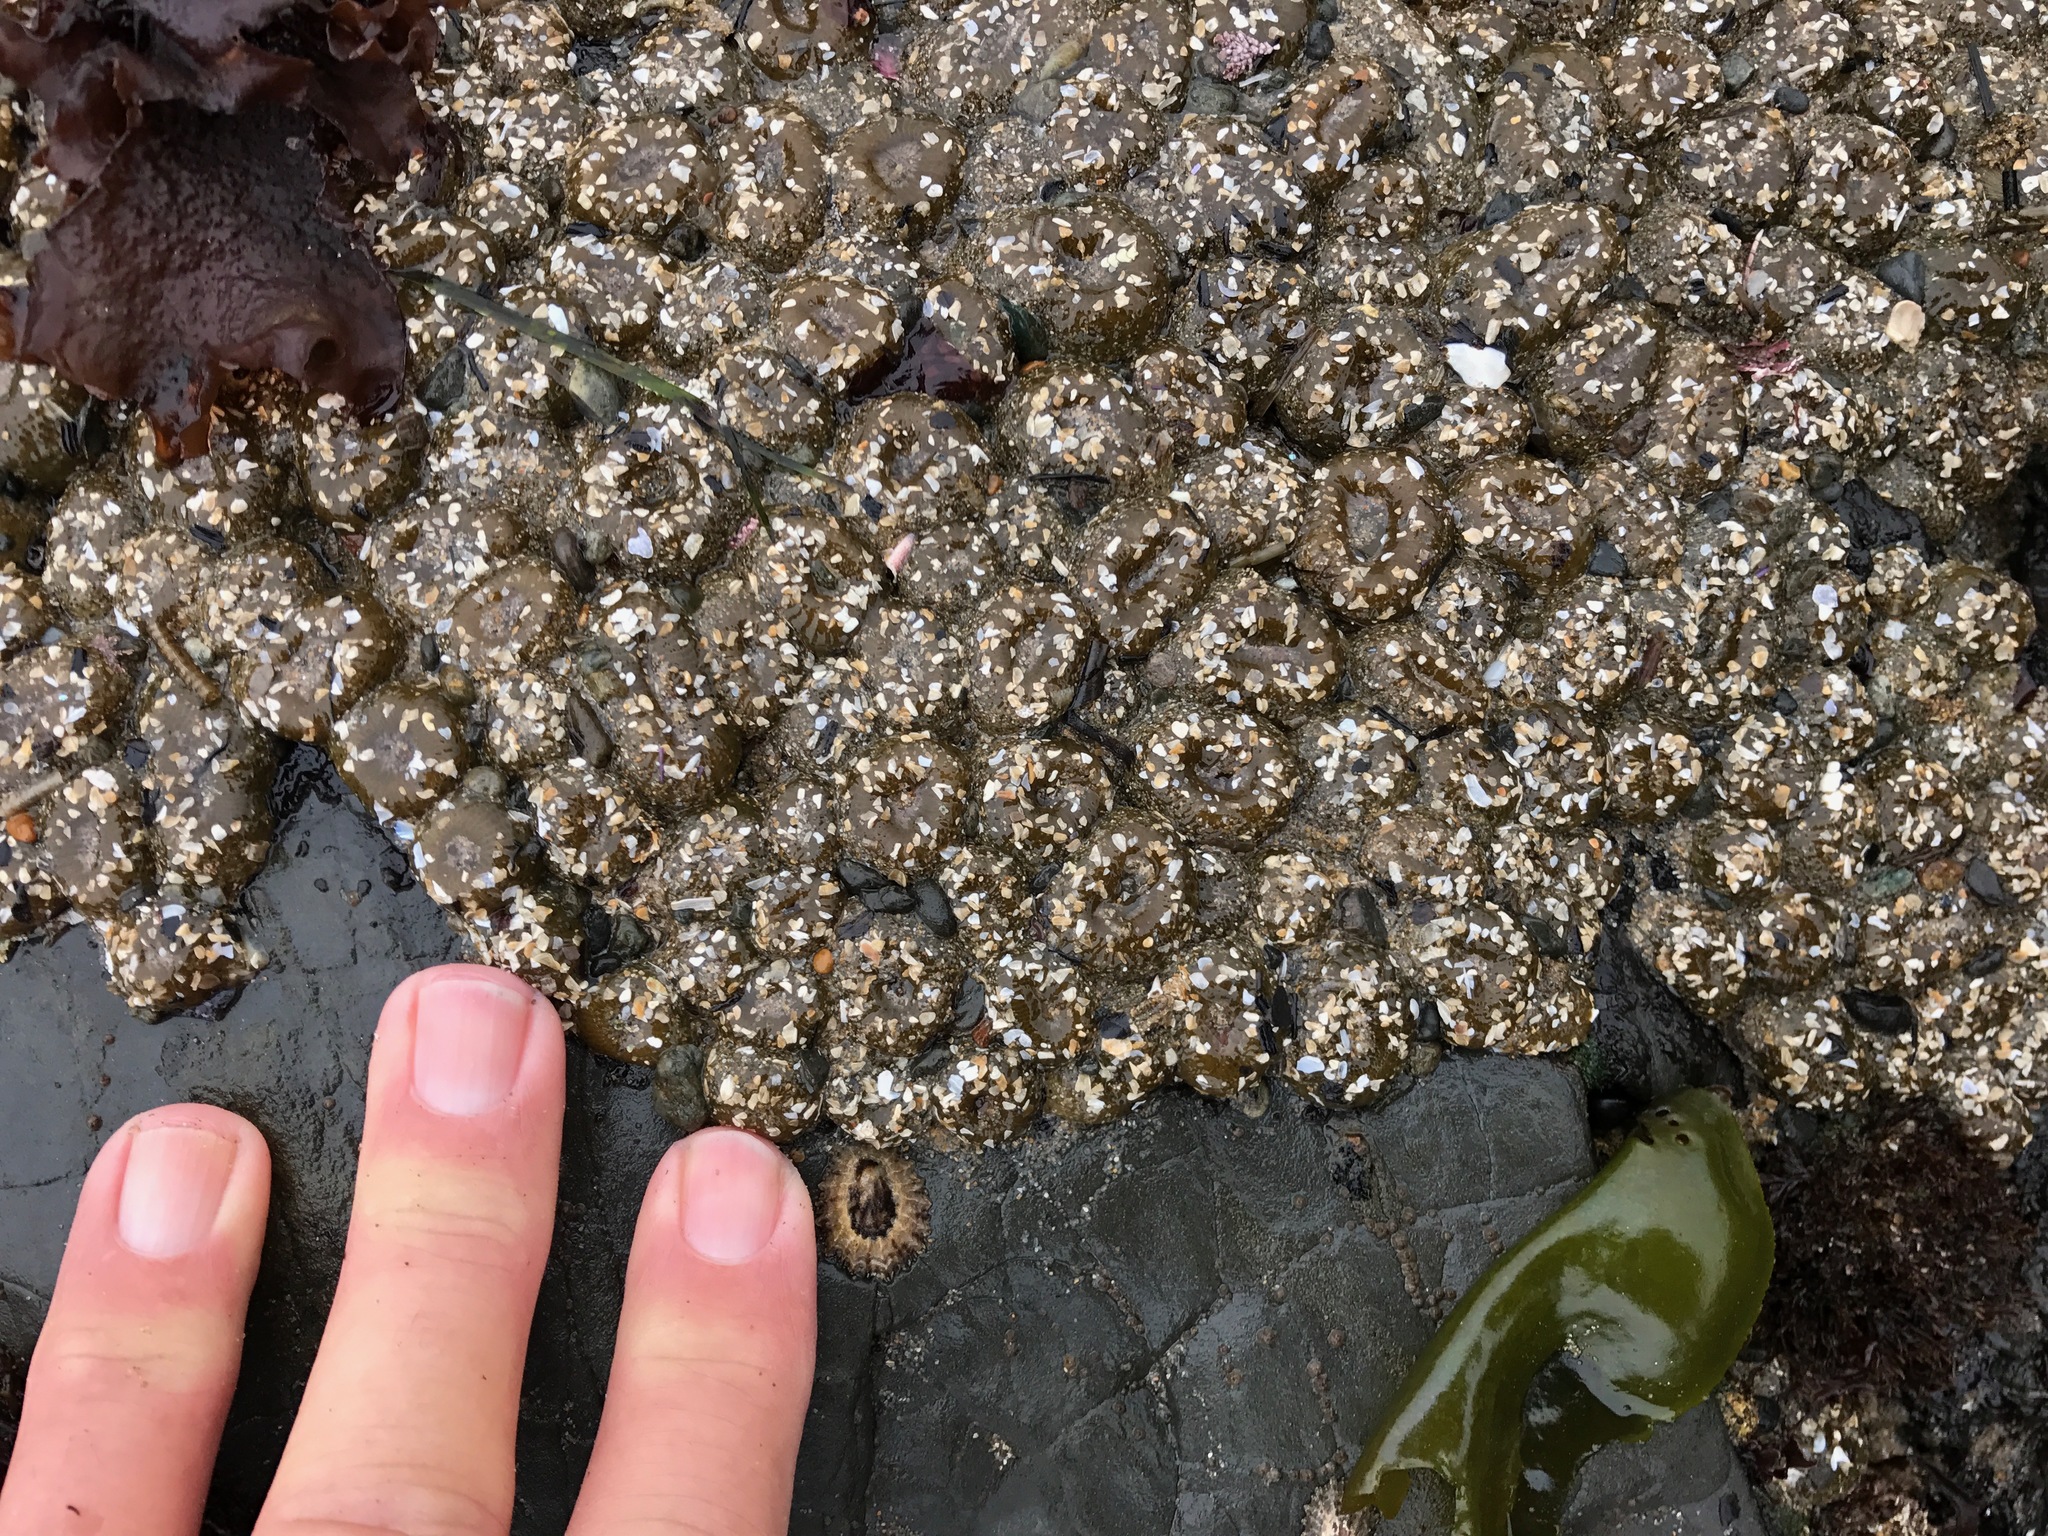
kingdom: Animalia
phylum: Cnidaria
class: Anthozoa
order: Actiniaria
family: Actiniidae
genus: Anthopleura
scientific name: Anthopleura elegantissima
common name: Clonal anemone
